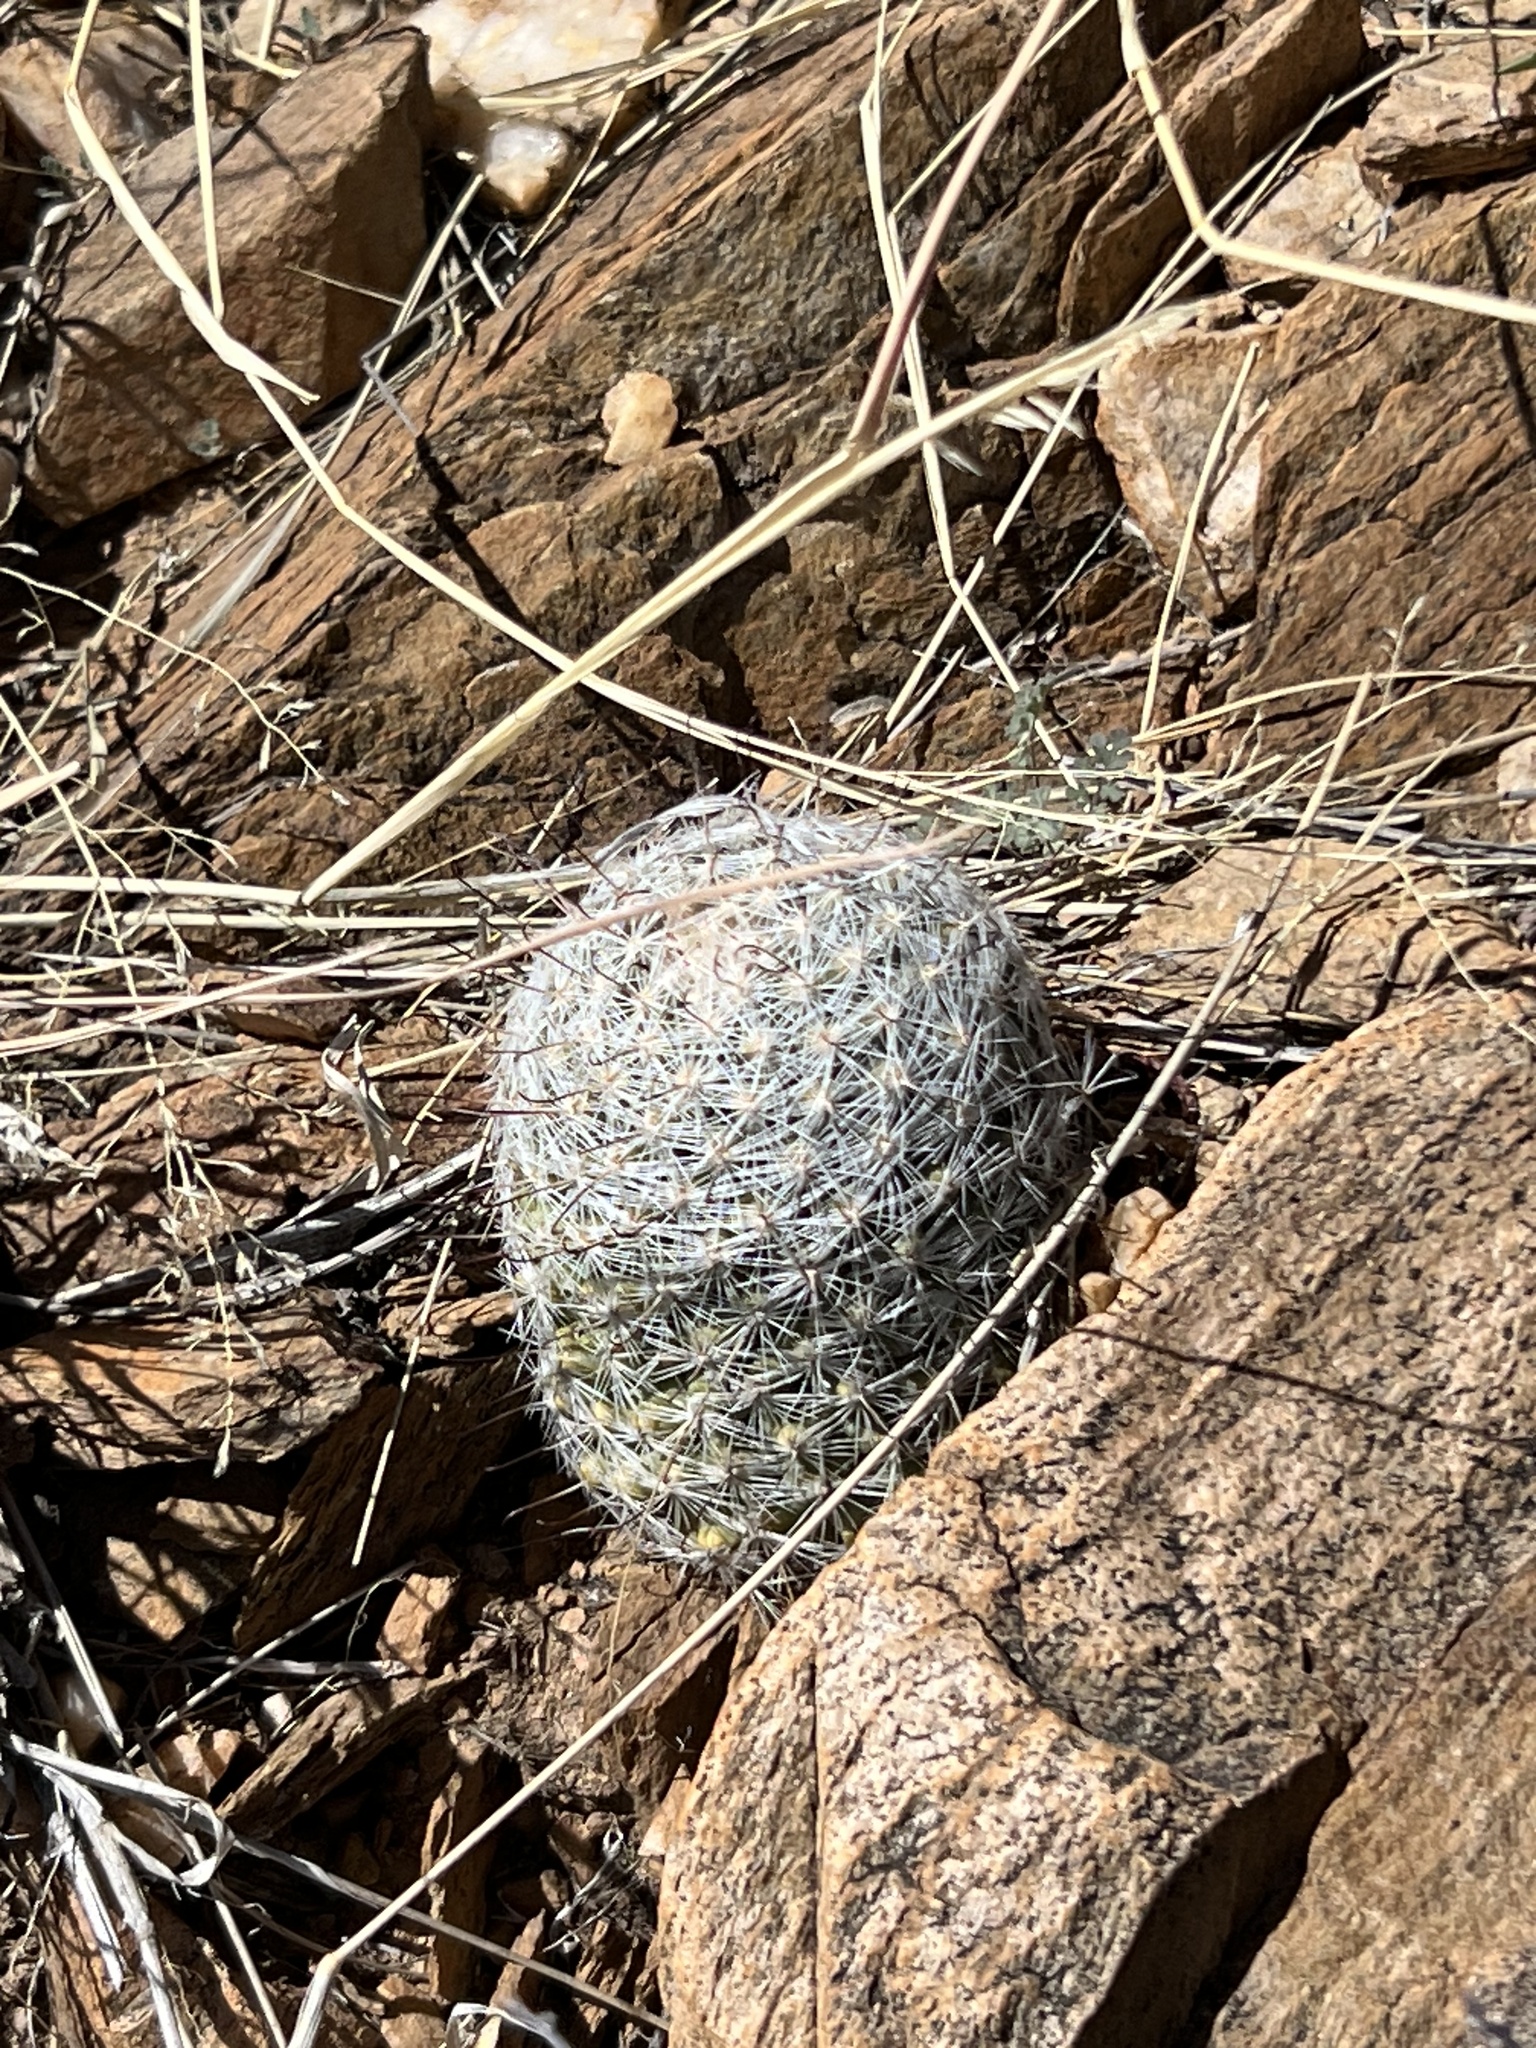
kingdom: Plantae
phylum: Tracheophyta
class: Magnoliopsida
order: Caryophyllales
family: Cactaceae
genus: Cochemiea
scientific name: Cochemiea grahamii
